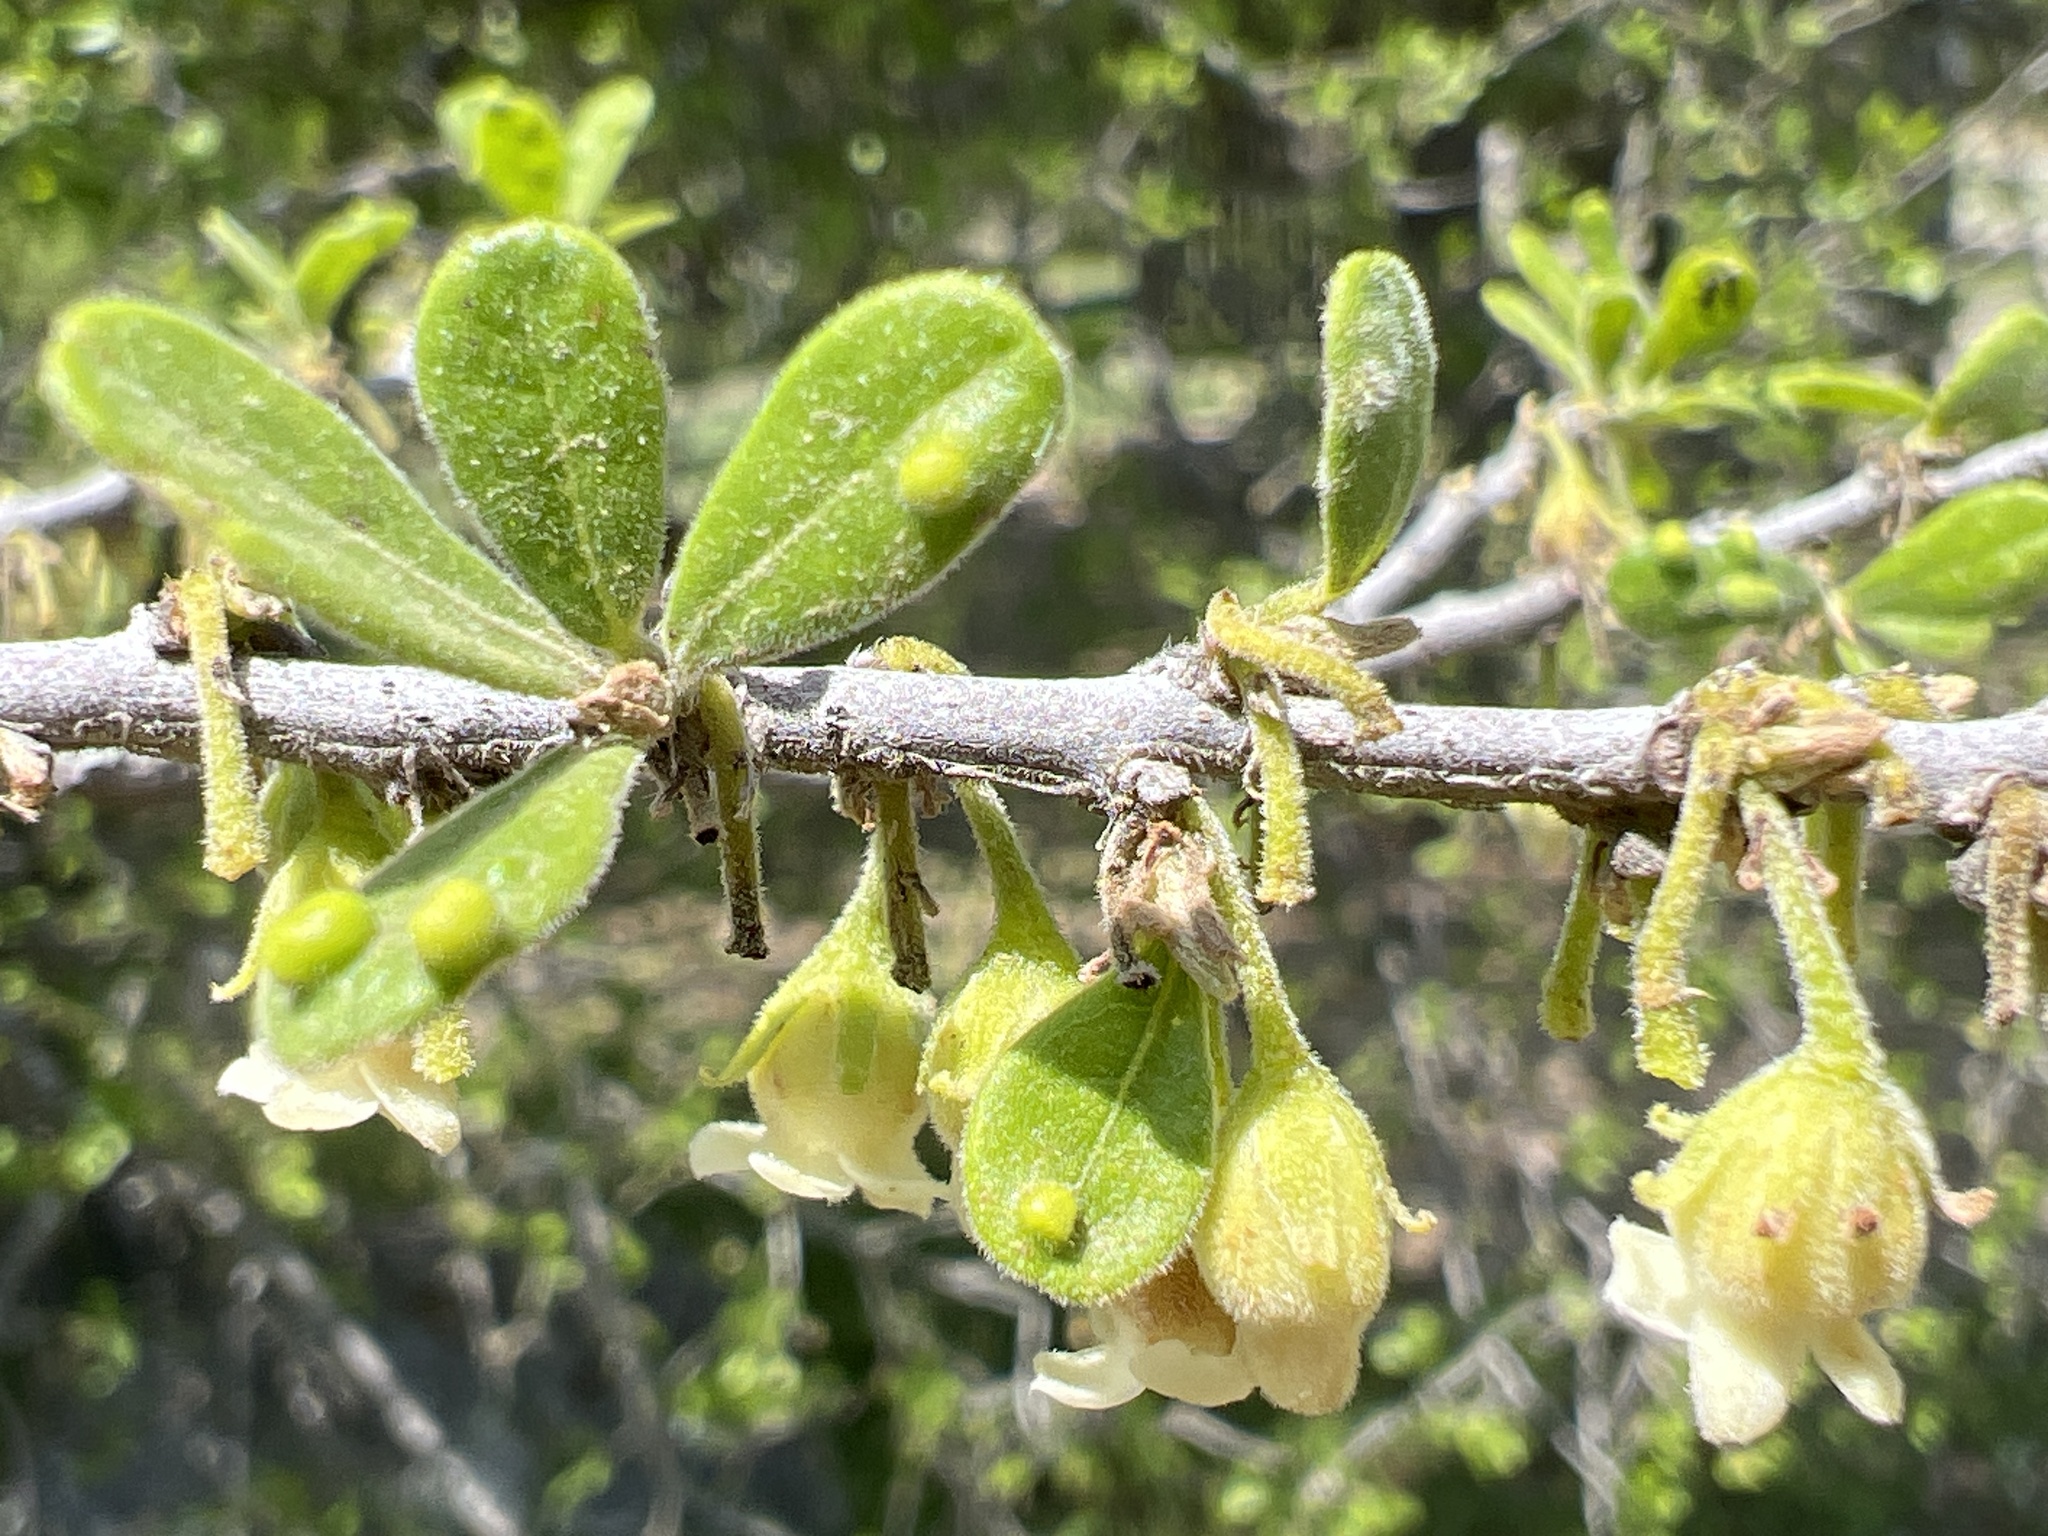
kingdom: Plantae
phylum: Tracheophyta
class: Magnoliopsida
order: Ericales
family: Ebenaceae
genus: Diospyros
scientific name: Diospyros texana
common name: Texas persimmon
